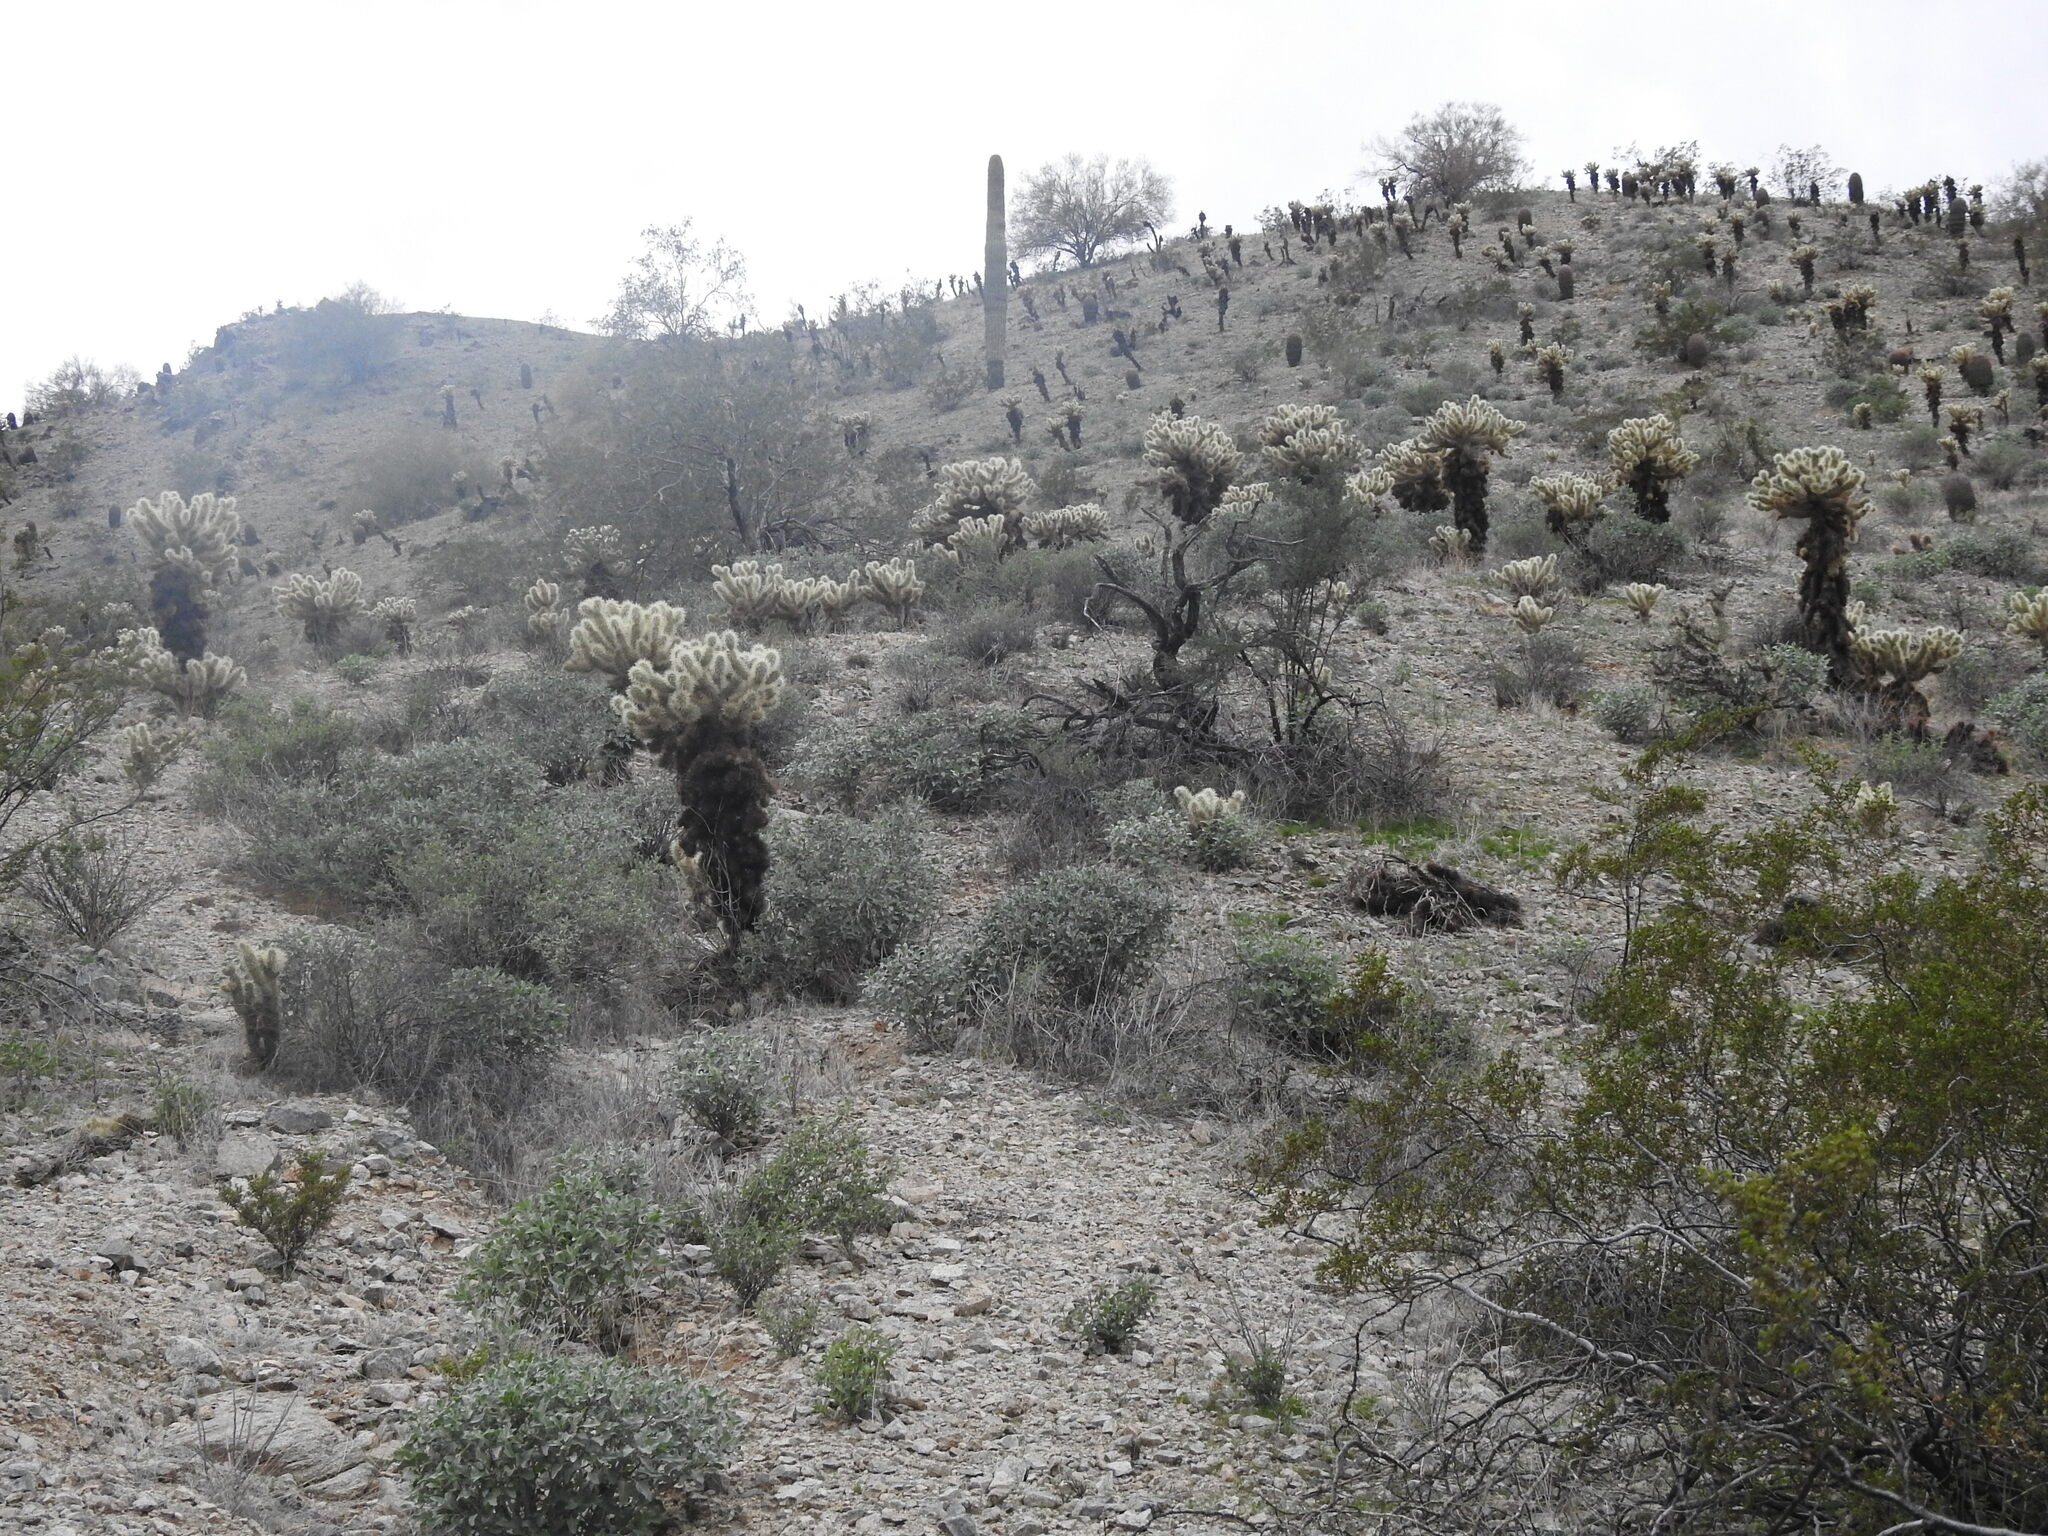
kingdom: Plantae
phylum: Tracheophyta
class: Magnoliopsida
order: Caryophyllales
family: Cactaceae
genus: Cylindropuntia
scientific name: Cylindropuntia fosbergii
